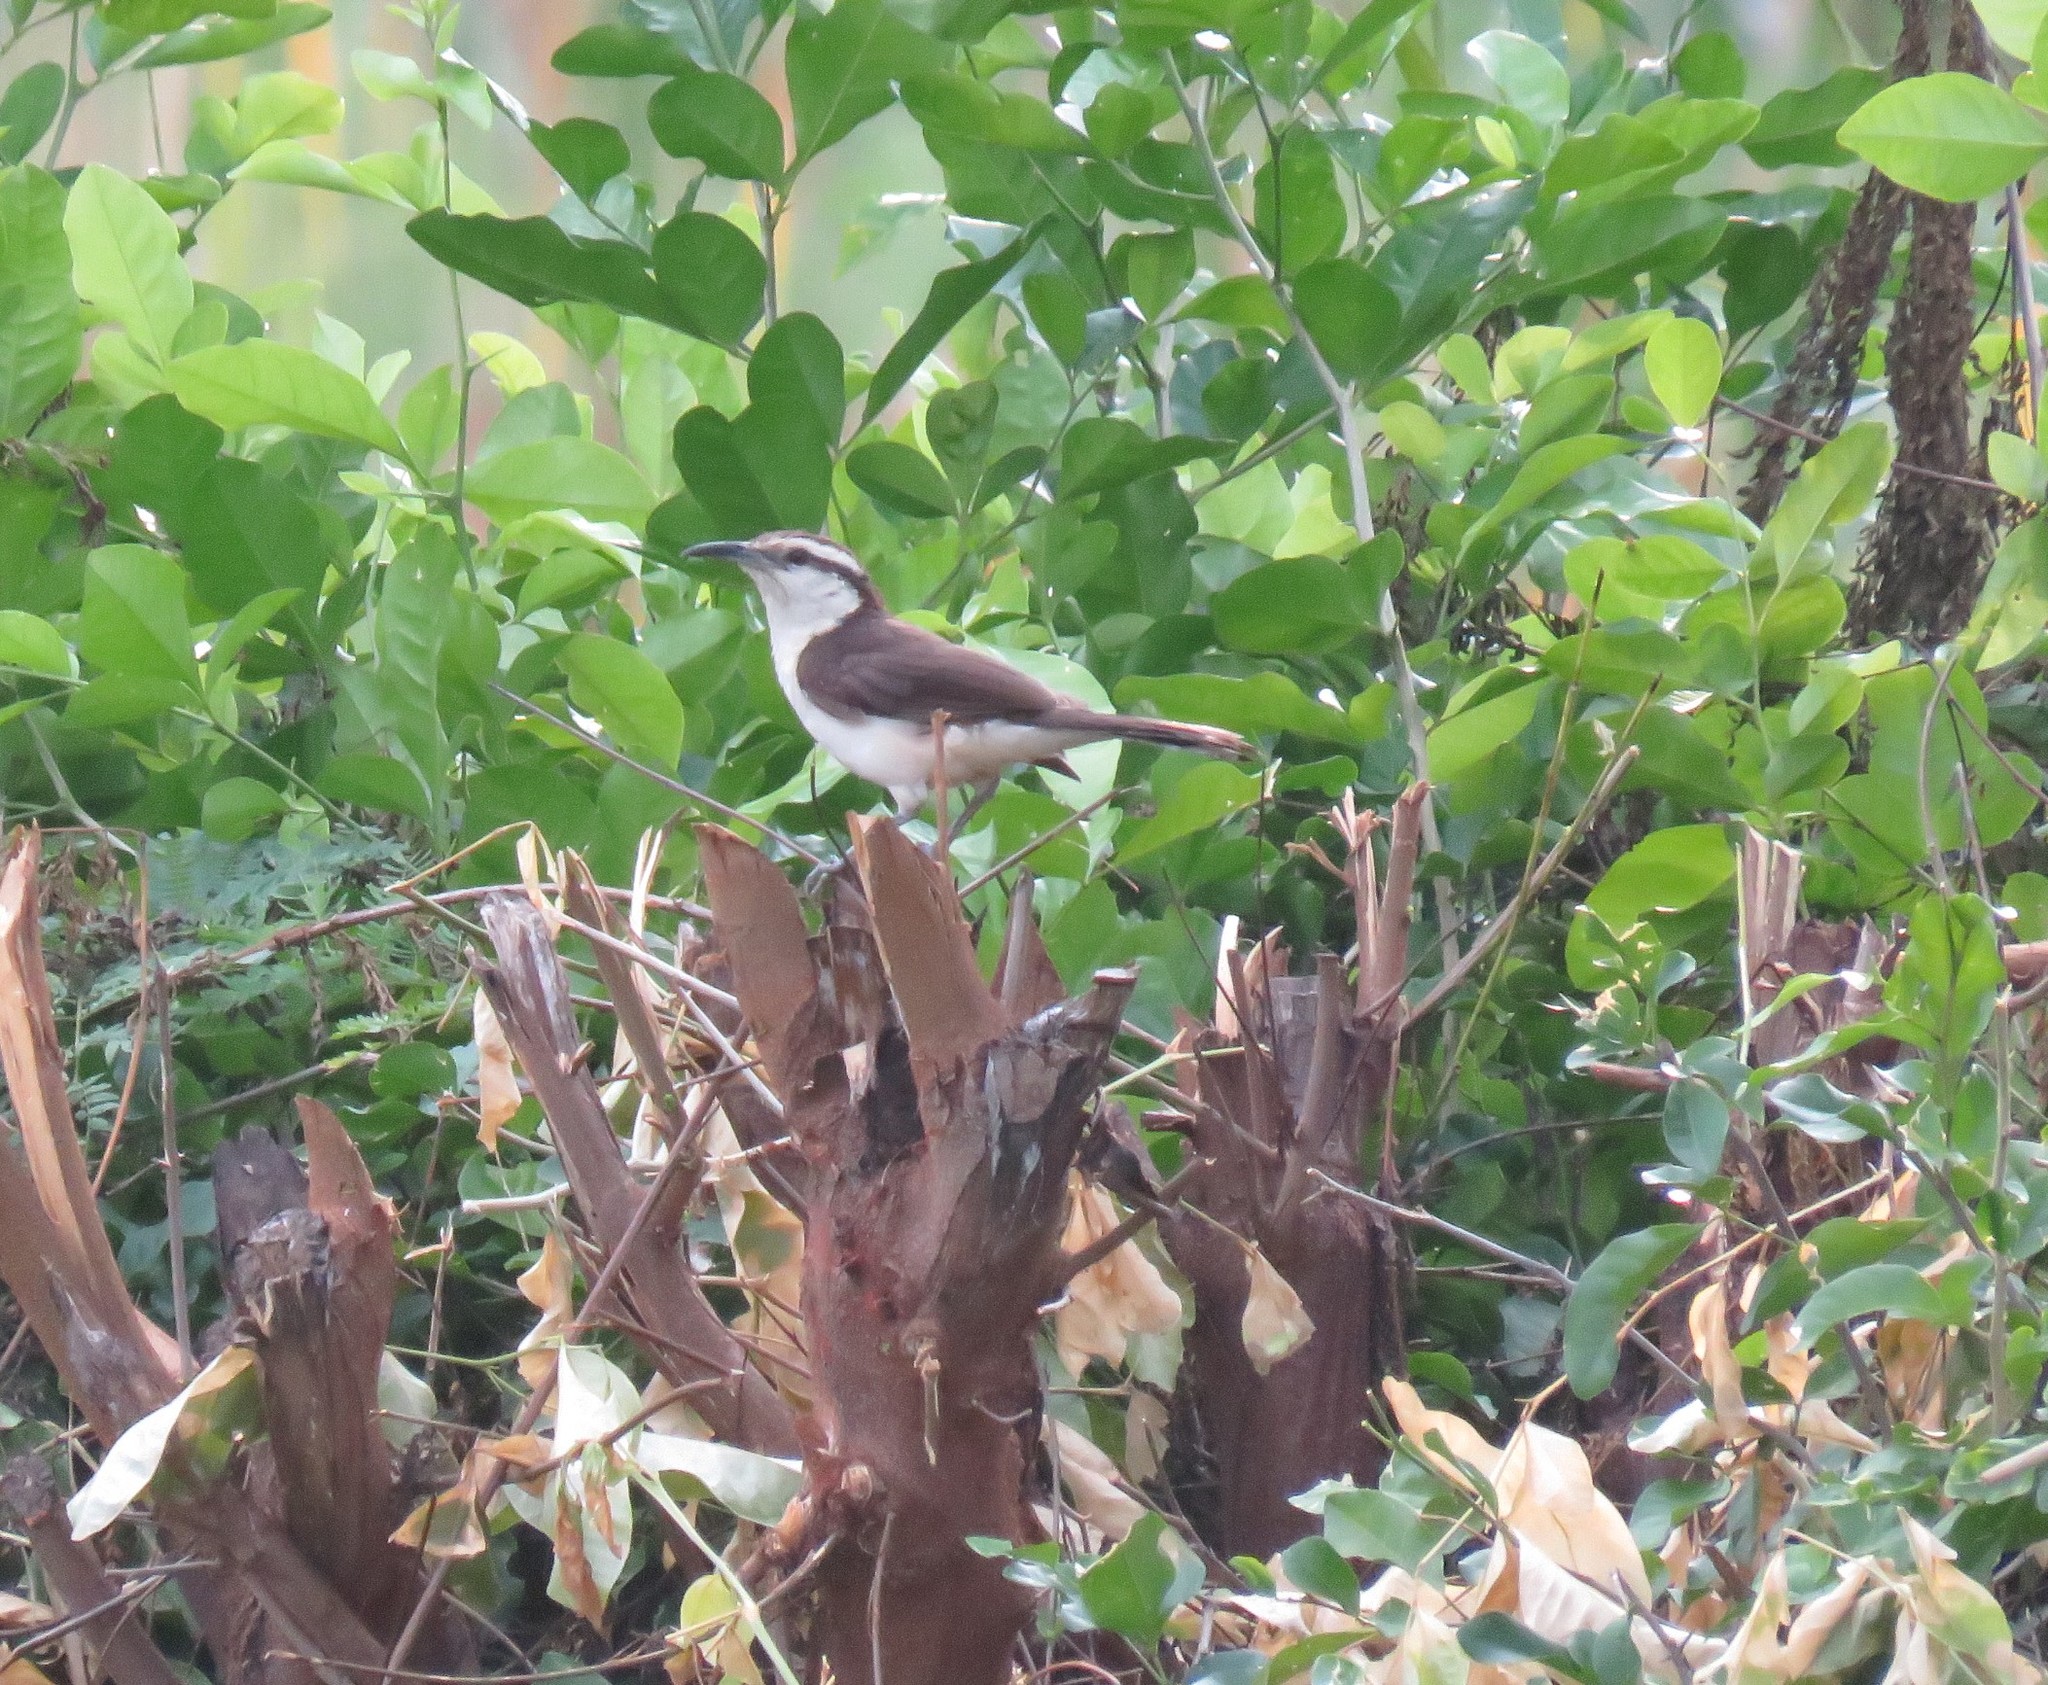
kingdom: Animalia
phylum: Chordata
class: Aves
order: Passeriformes
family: Troglodytidae
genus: Campylorhynchus
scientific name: Campylorhynchus griseus
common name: Bicolored wren
